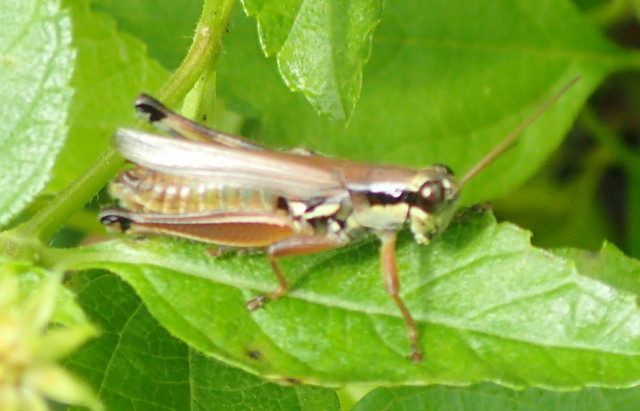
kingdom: Animalia
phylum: Arthropoda
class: Insecta
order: Orthoptera
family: Acrididae
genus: Paroxya
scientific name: Paroxya atlantica
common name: Atlantic grasshopper
